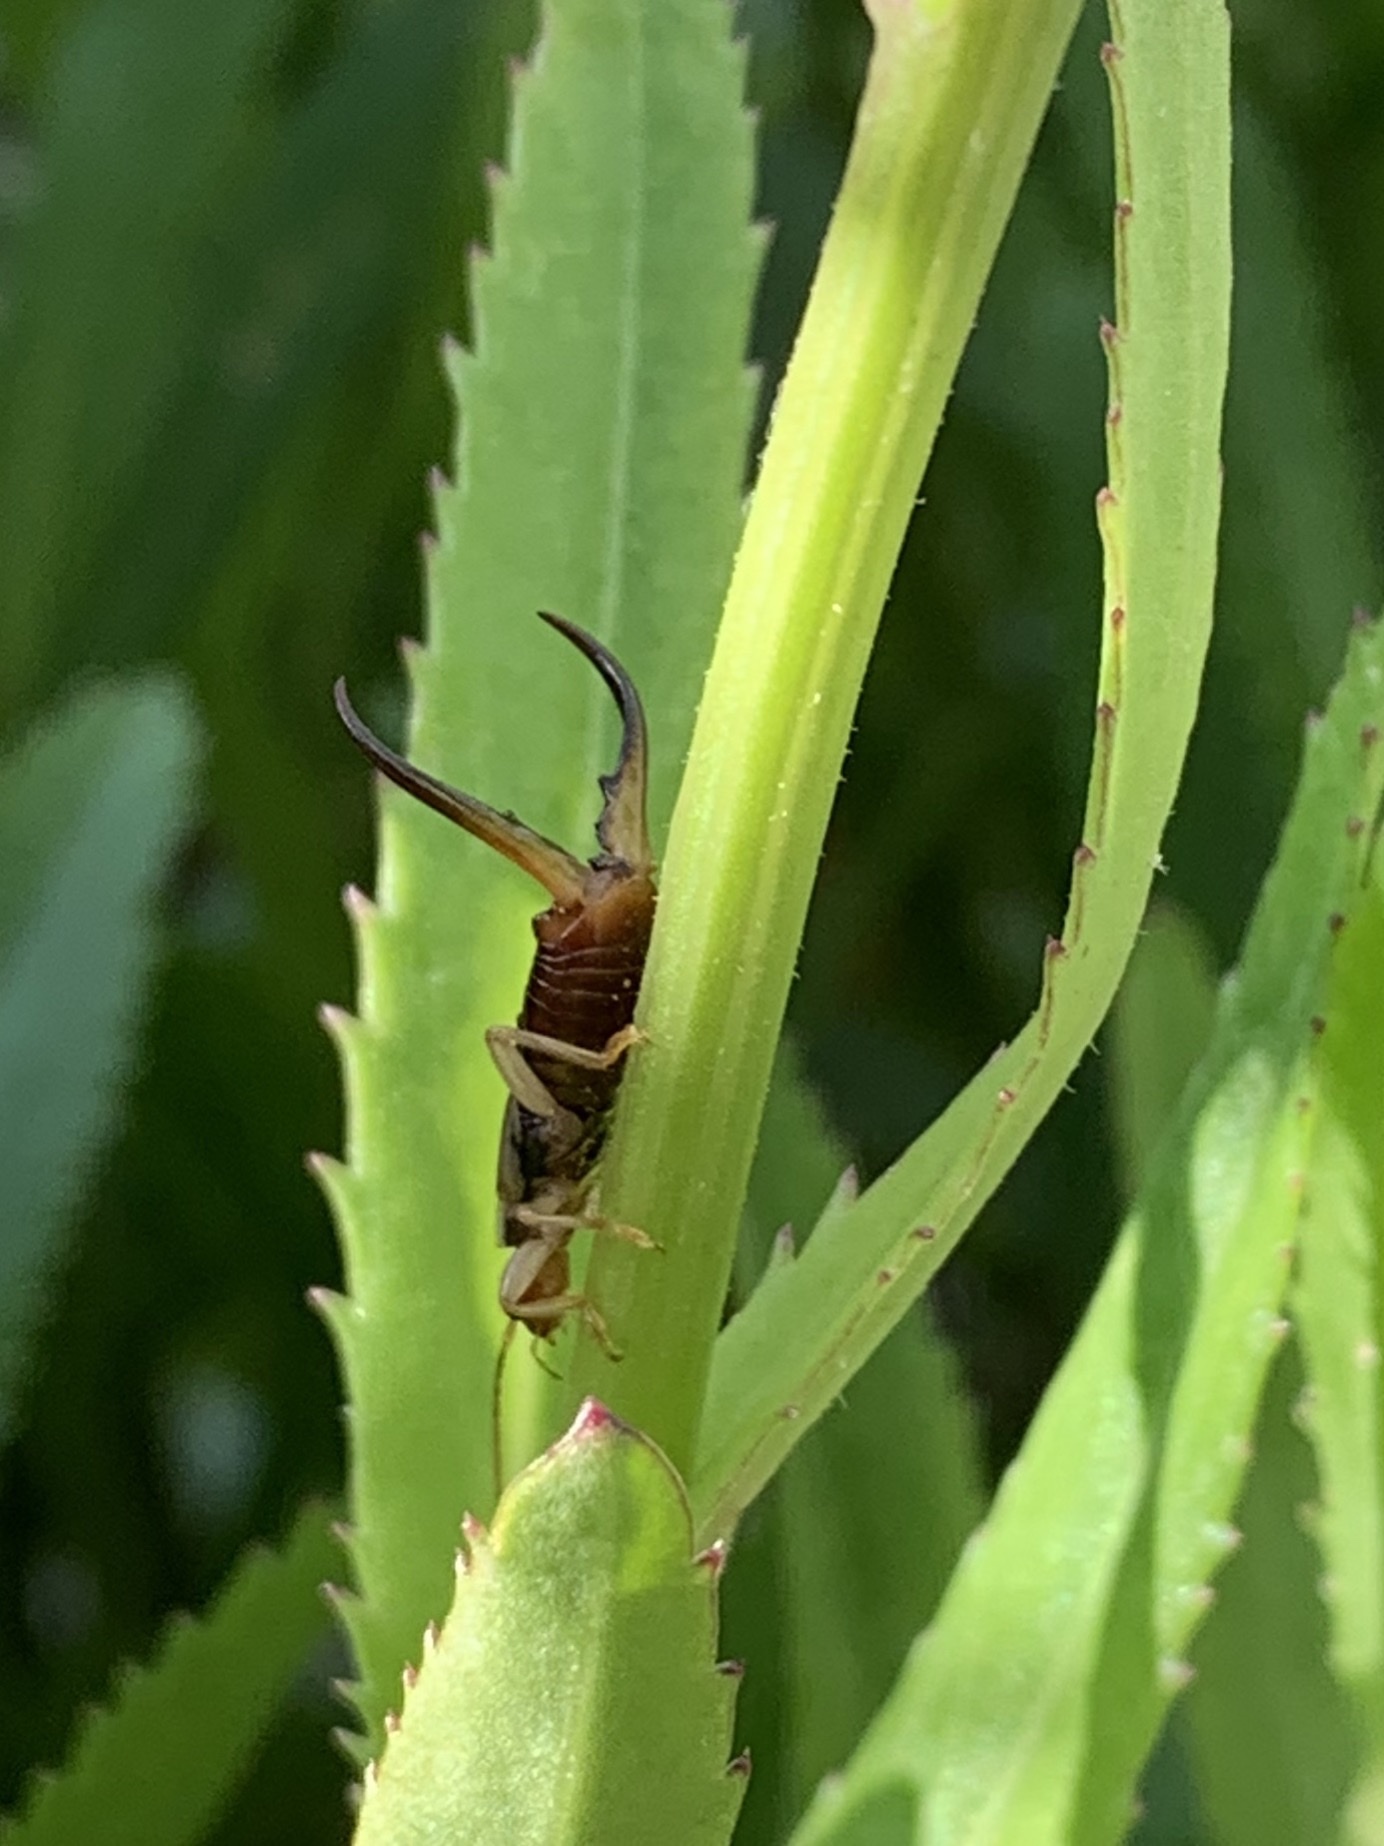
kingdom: Animalia
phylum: Arthropoda
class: Insecta
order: Dermaptera
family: Forficulidae
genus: Forficula
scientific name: Forficula
